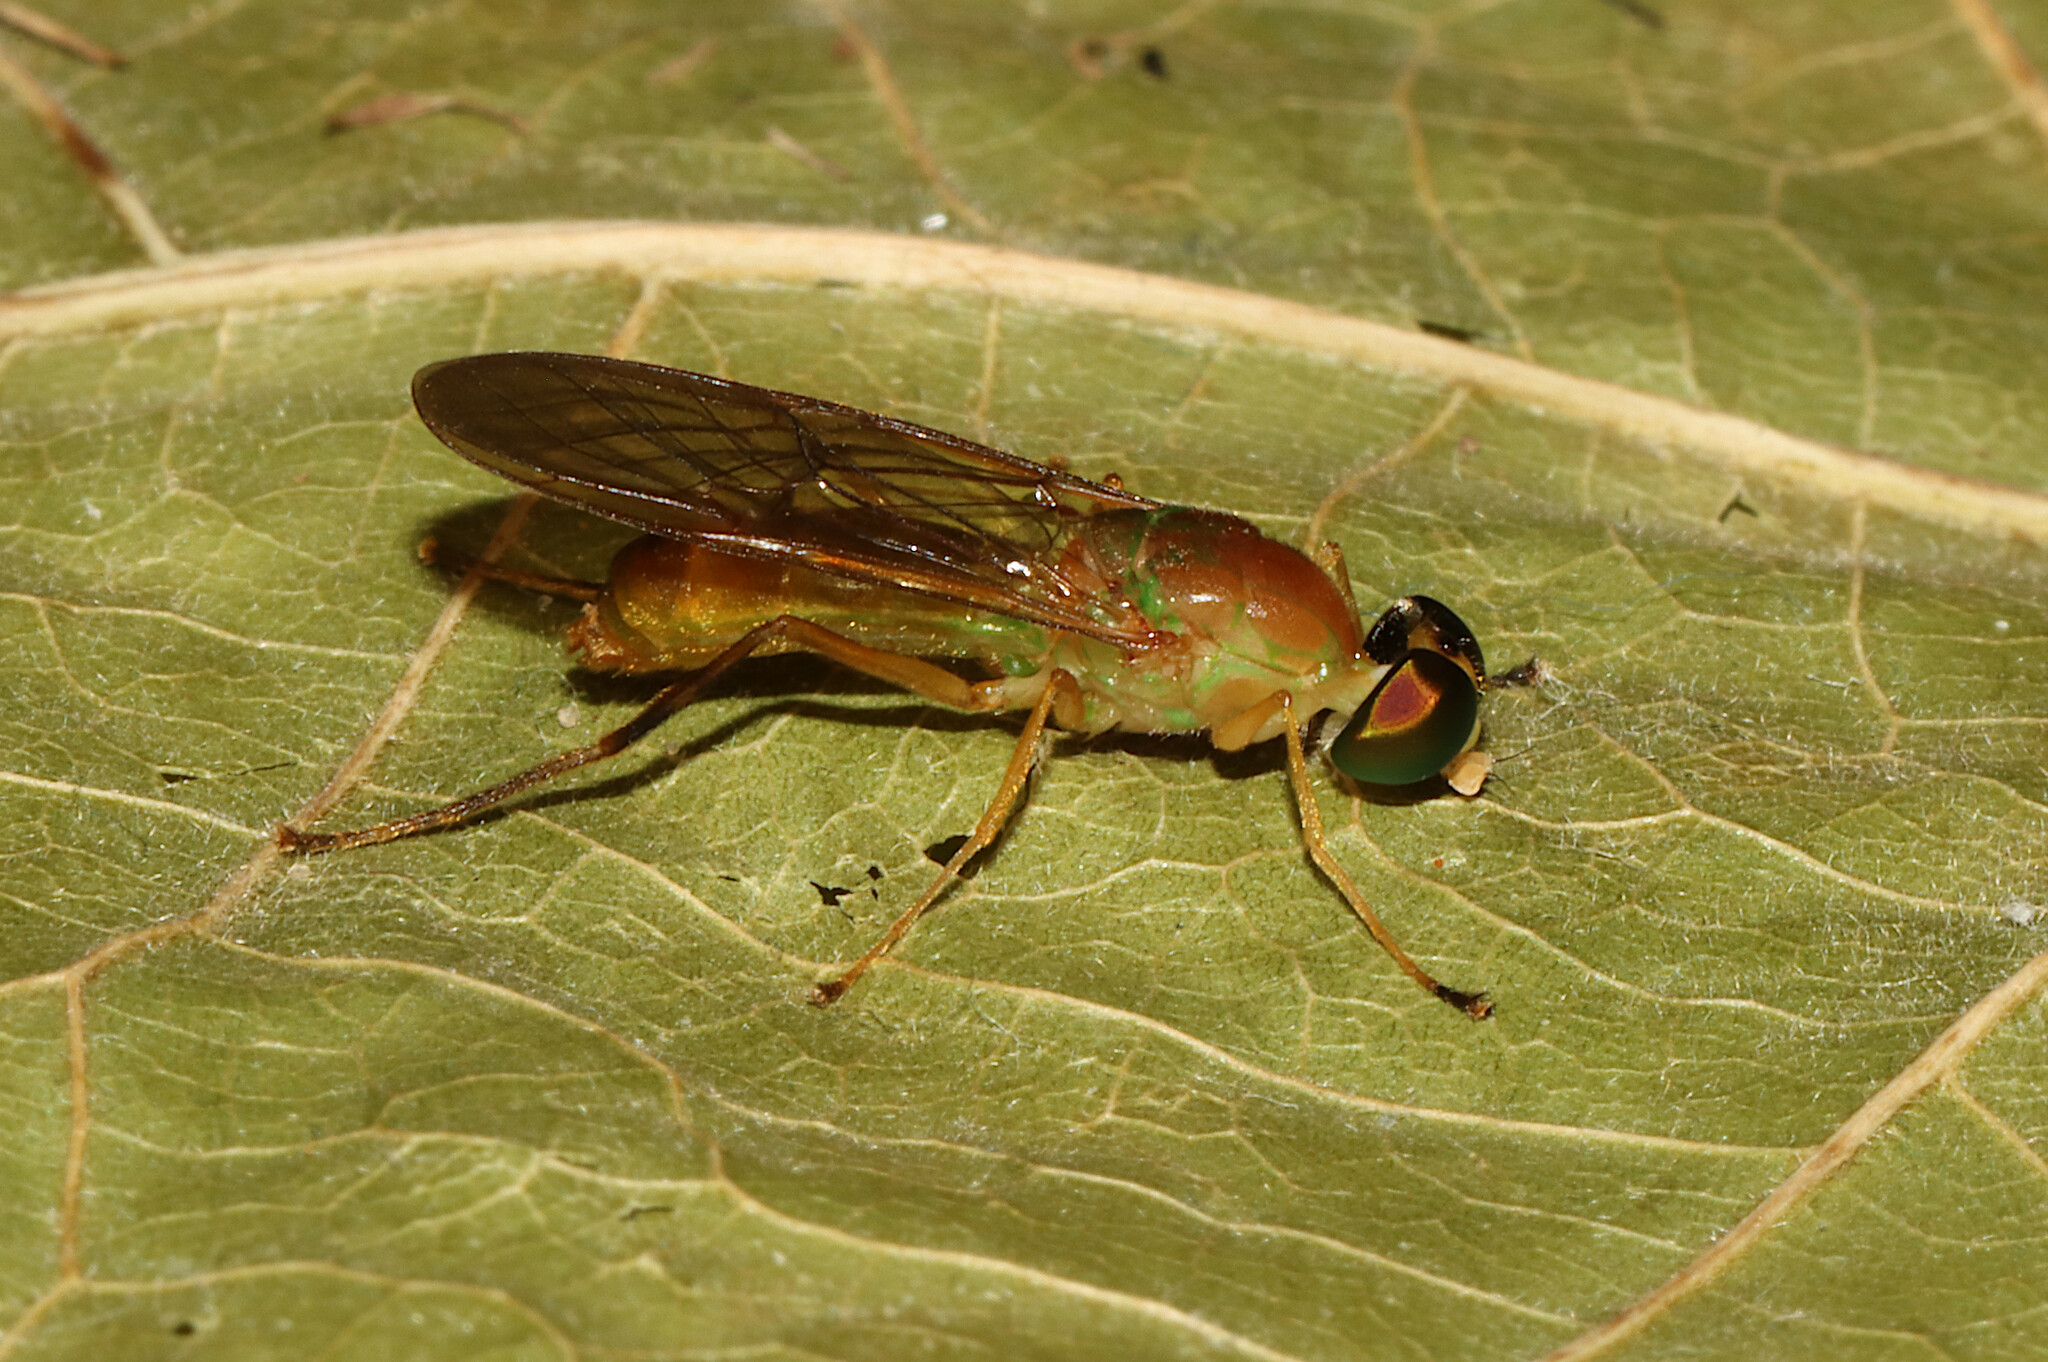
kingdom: Animalia
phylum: Arthropoda
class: Insecta
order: Diptera
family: Stratiomyidae
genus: Ptecticus
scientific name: Ptecticus trivittatus
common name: Compost fly
